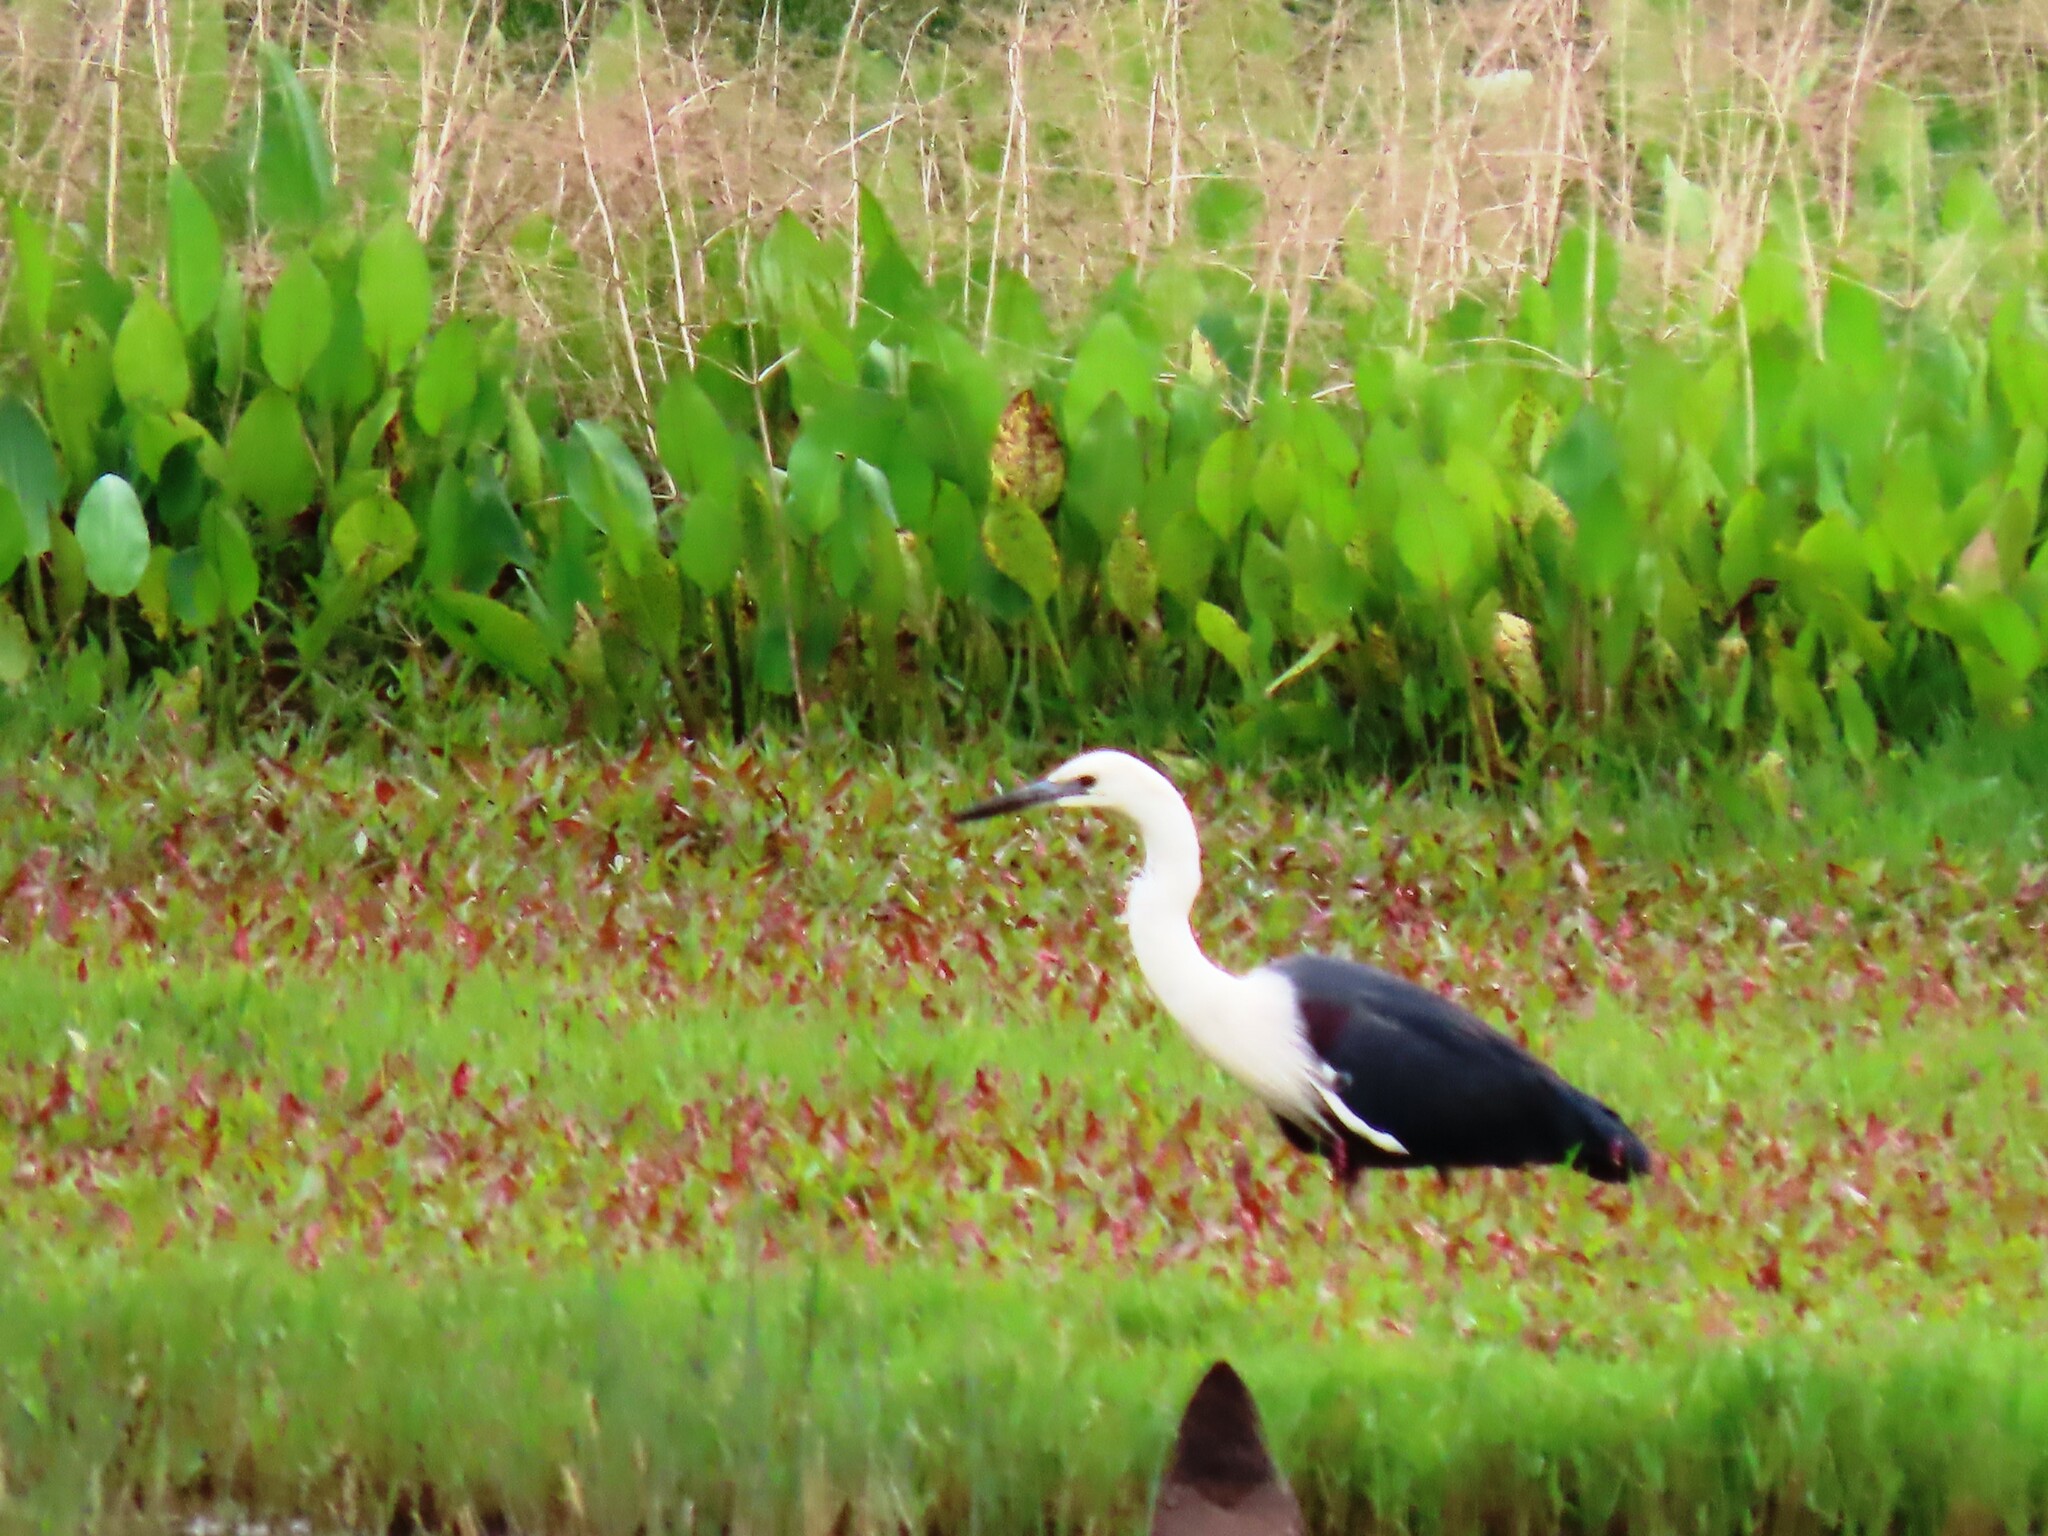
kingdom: Animalia
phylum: Chordata
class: Aves
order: Pelecaniformes
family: Ardeidae
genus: Ardea
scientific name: Ardea pacifica
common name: White-necked heron
